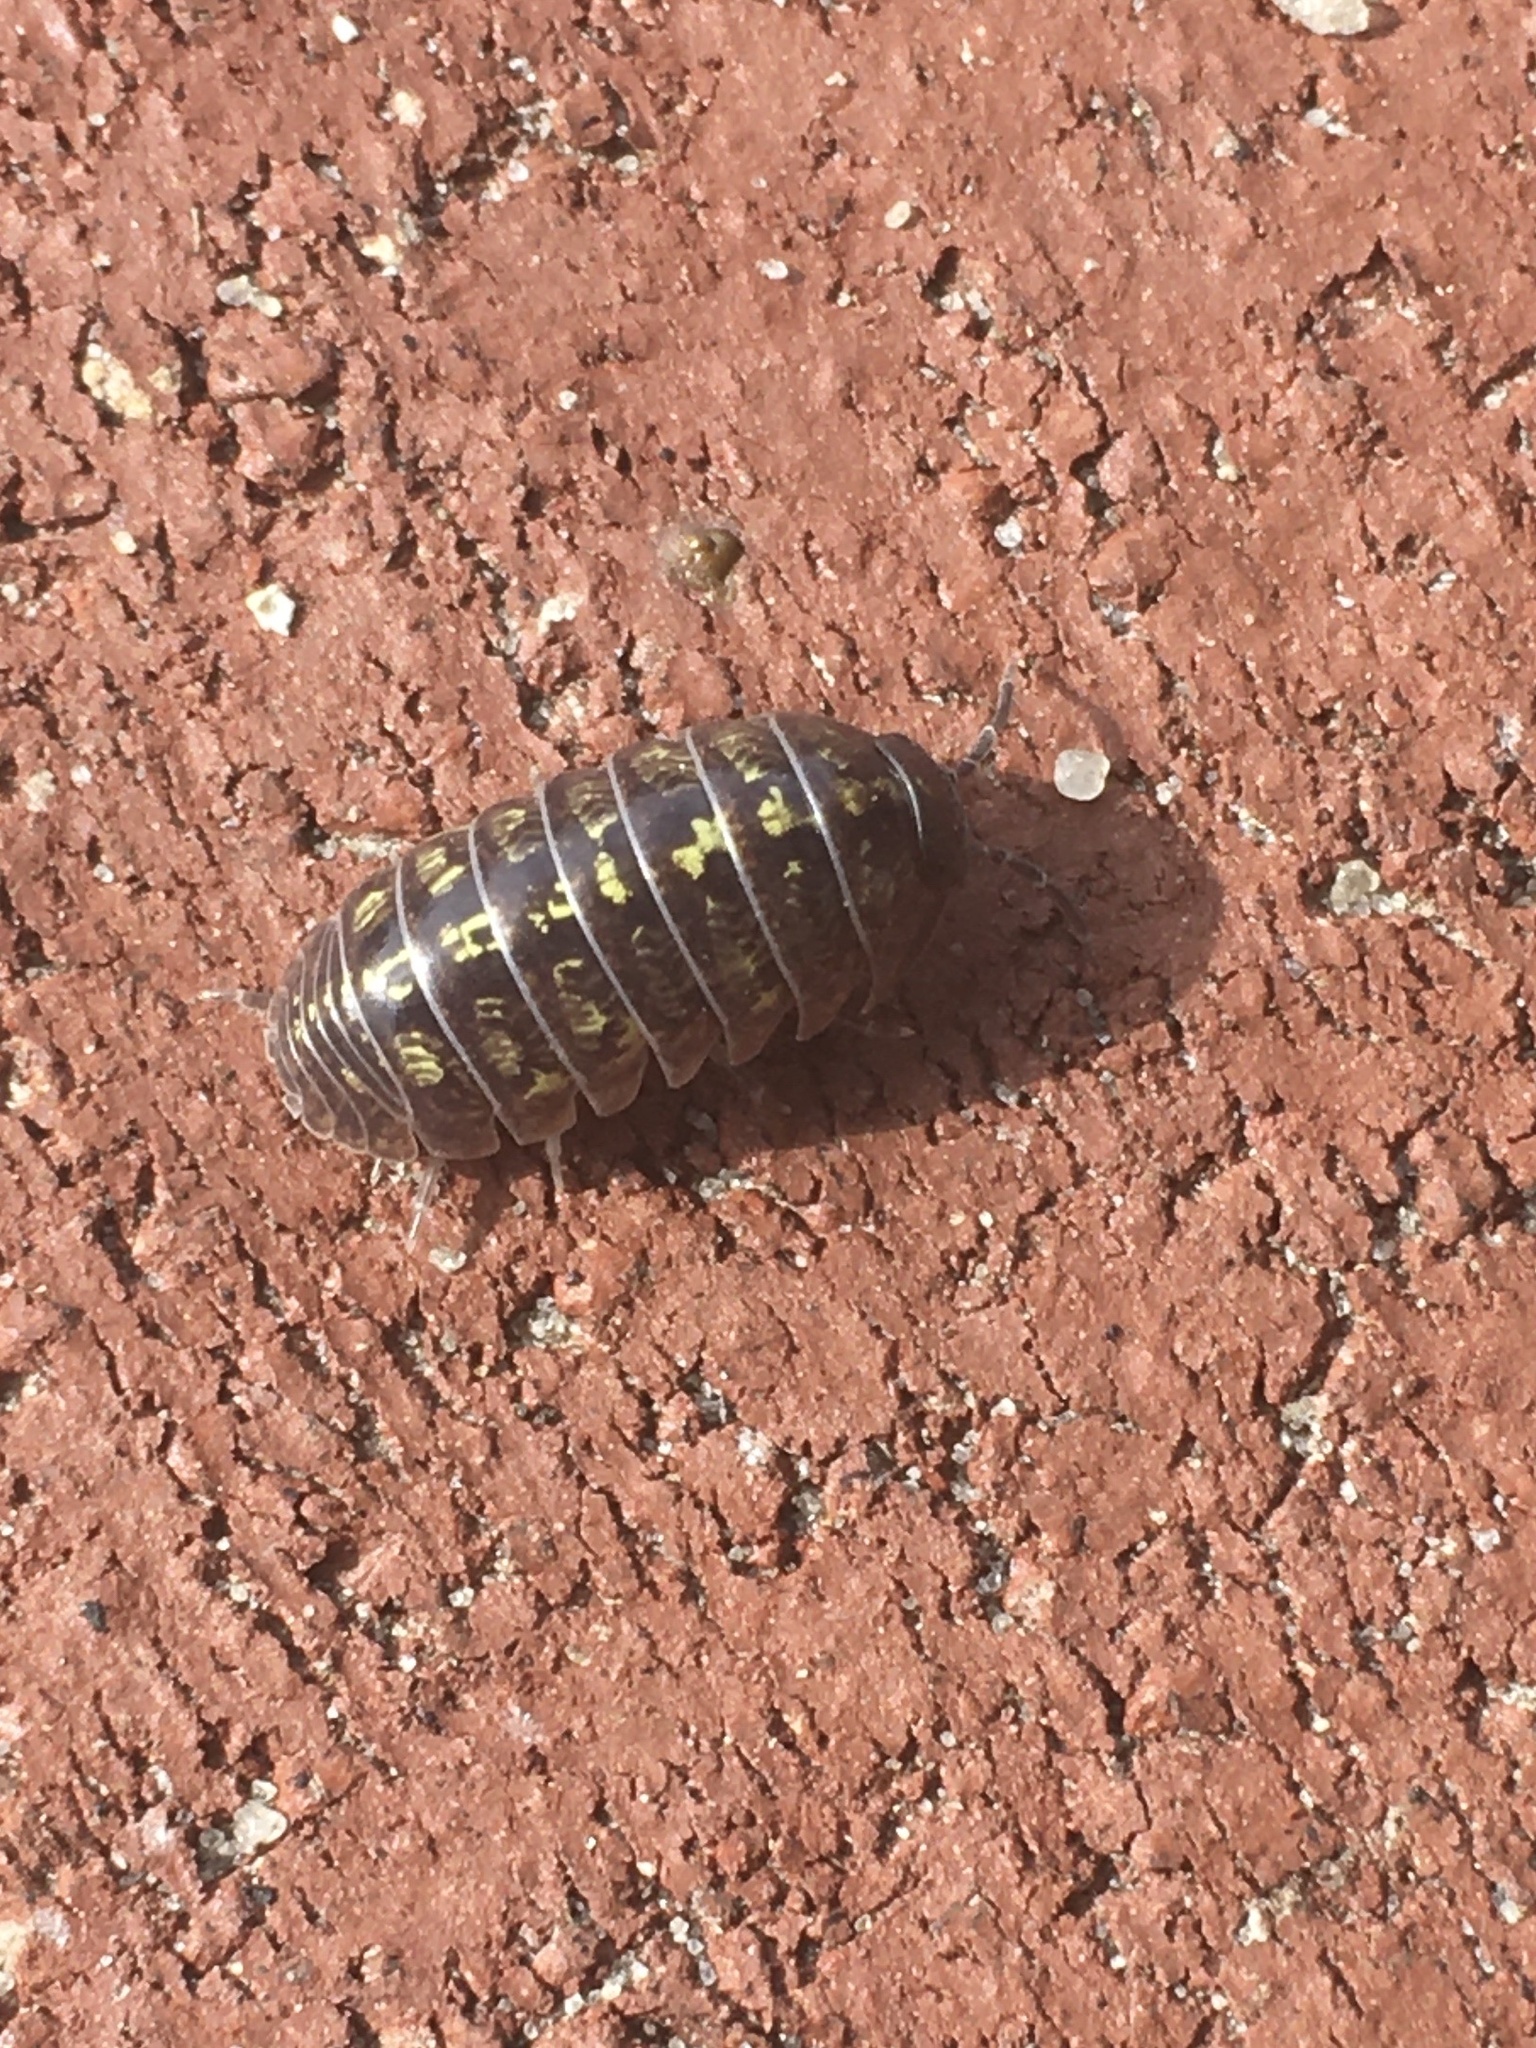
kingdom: Animalia
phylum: Arthropoda
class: Malacostraca
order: Isopoda
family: Armadillidiidae
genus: Armadillidium
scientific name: Armadillidium vulgare
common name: Common pill woodlouse
